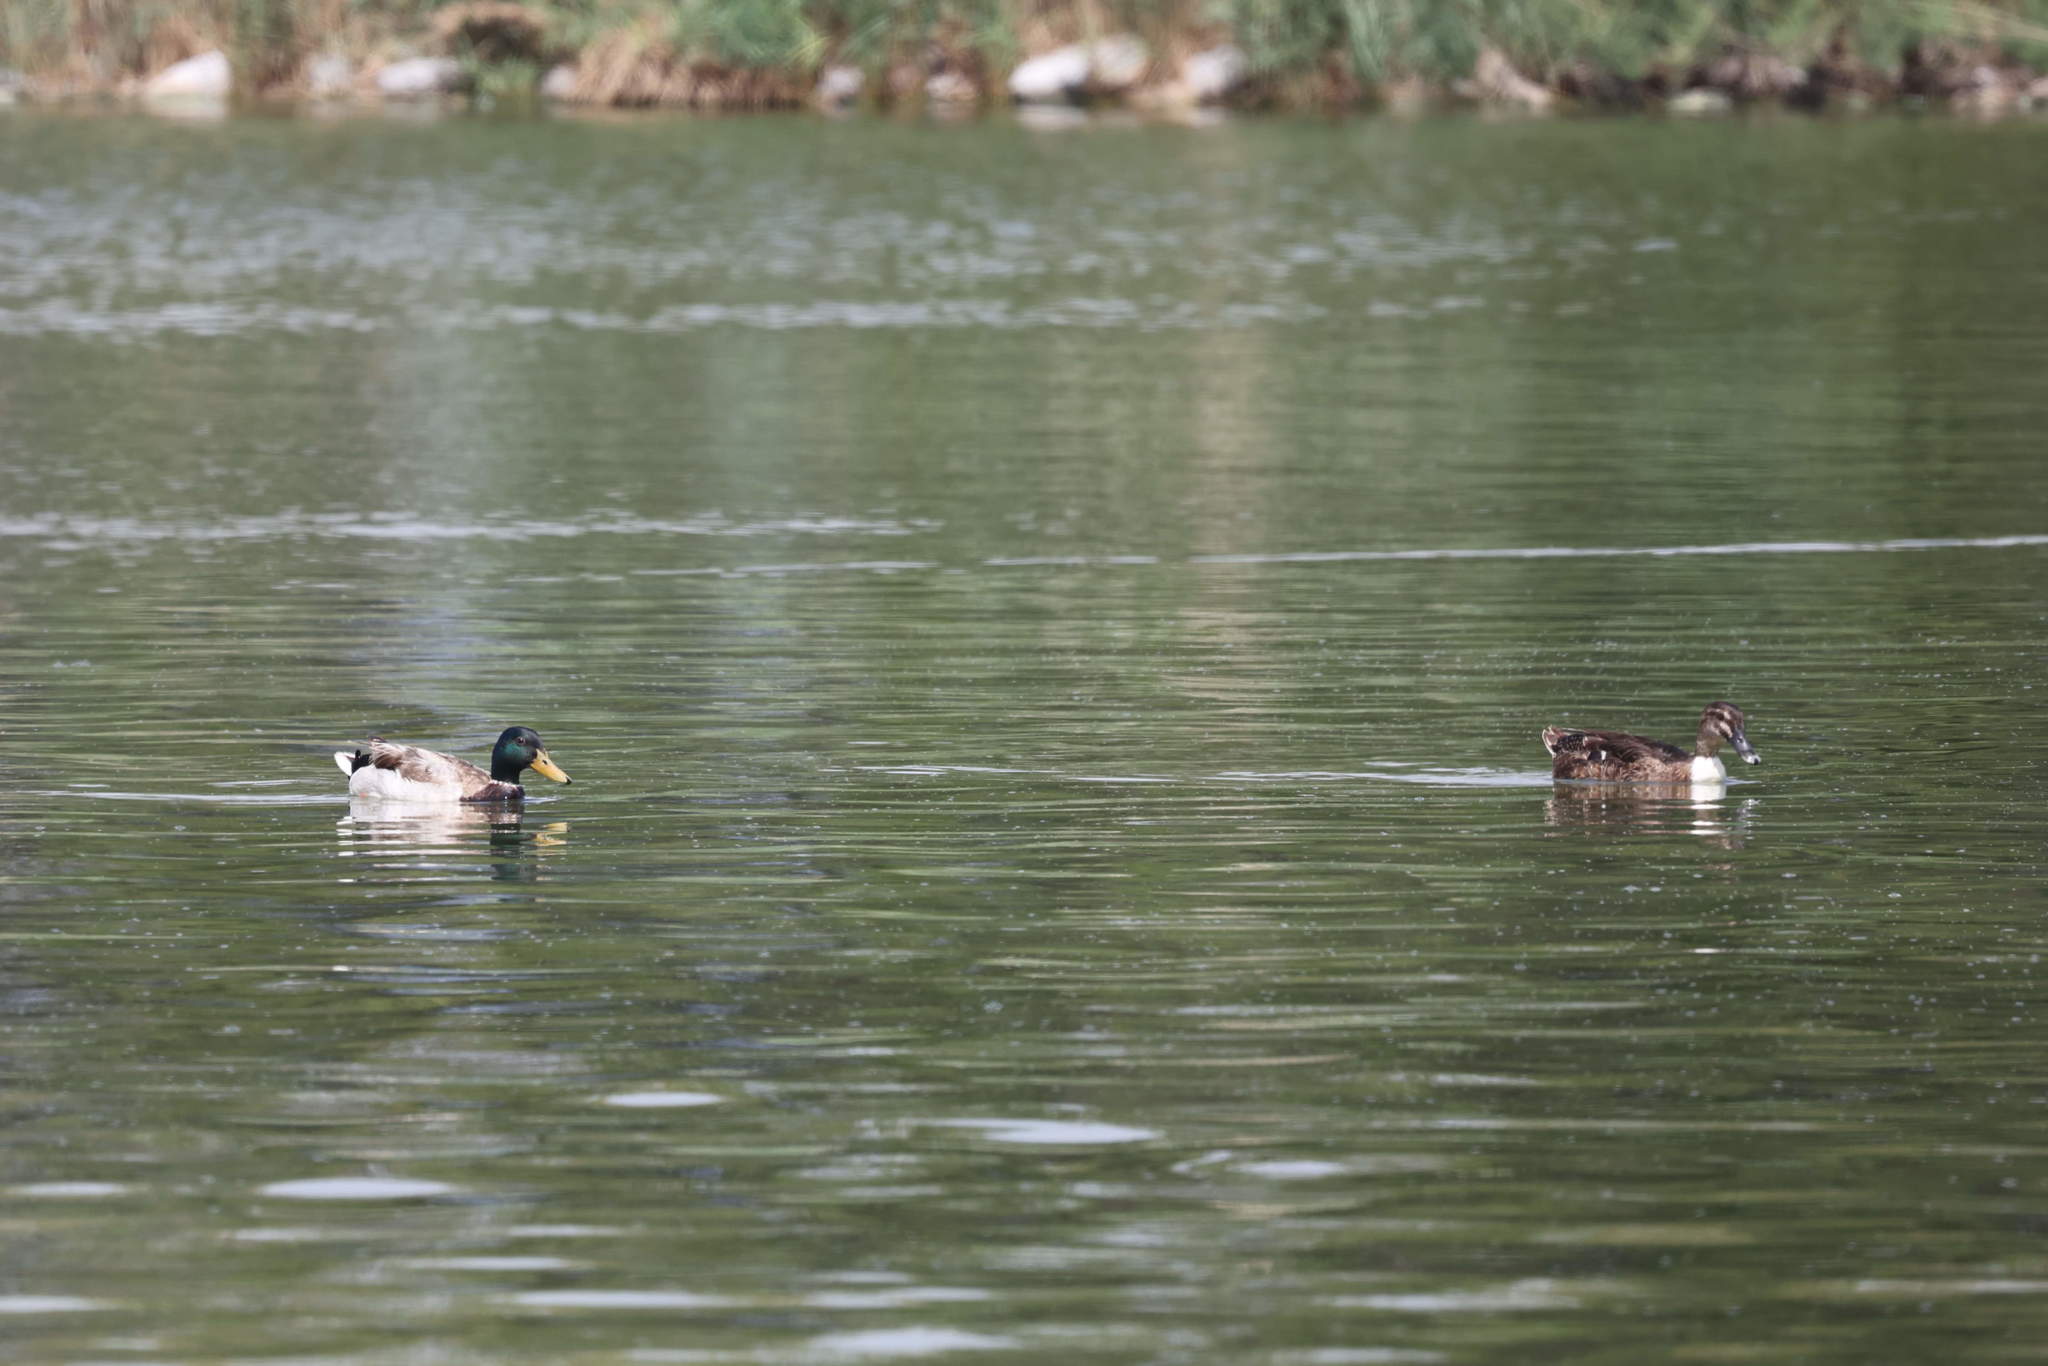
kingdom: Animalia
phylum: Chordata
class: Aves
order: Anseriformes
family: Anatidae
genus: Anas
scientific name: Anas platyrhynchos
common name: Mallard
